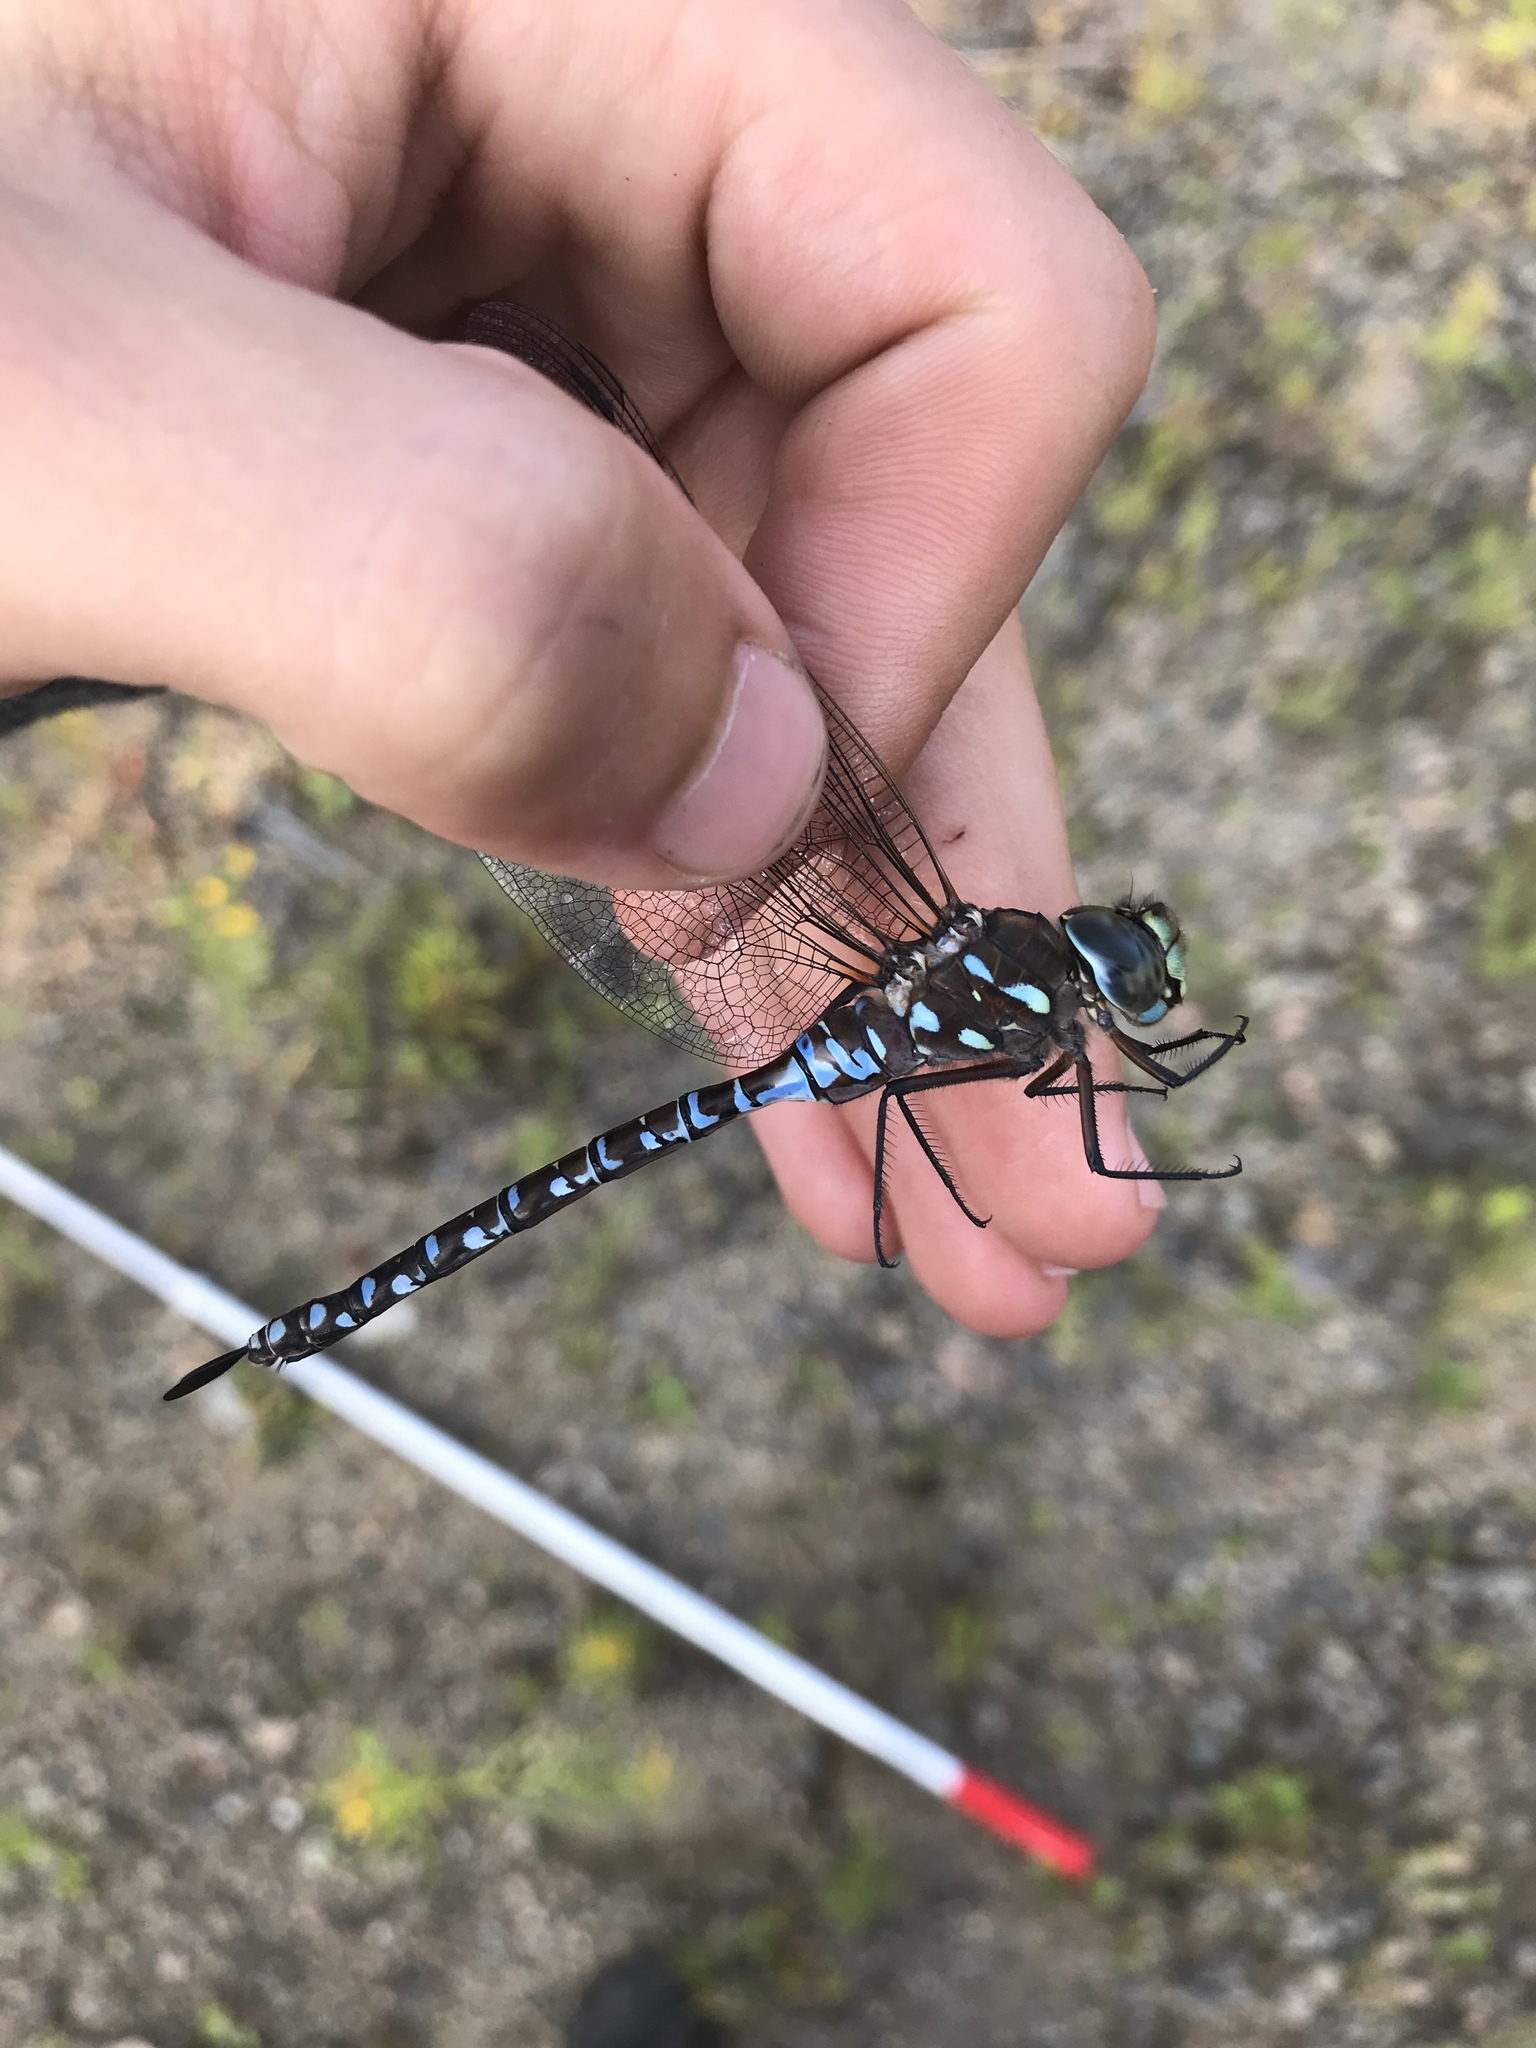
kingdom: Animalia
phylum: Arthropoda
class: Insecta
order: Odonata
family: Aeshnidae
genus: Aeshna
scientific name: Aeshna interrupta
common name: Variable darner
